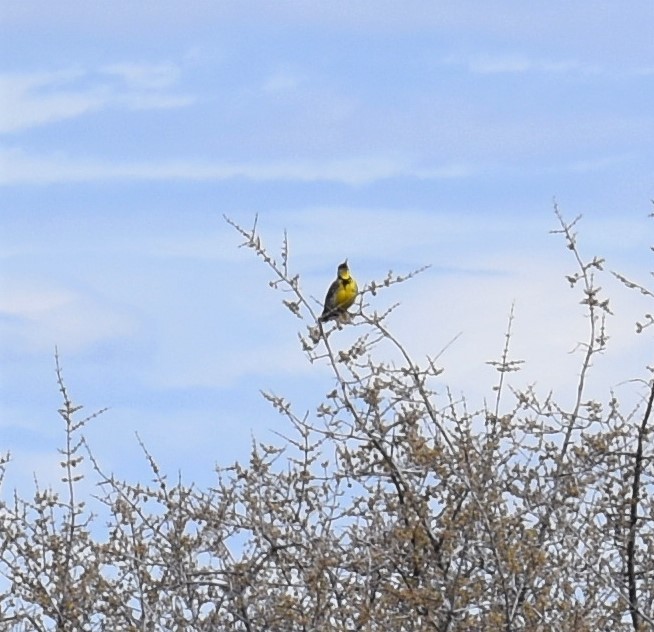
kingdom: Animalia
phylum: Chordata
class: Aves
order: Passeriformes
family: Icteridae
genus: Sturnella
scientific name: Sturnella neglecta
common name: Western meadowlark
